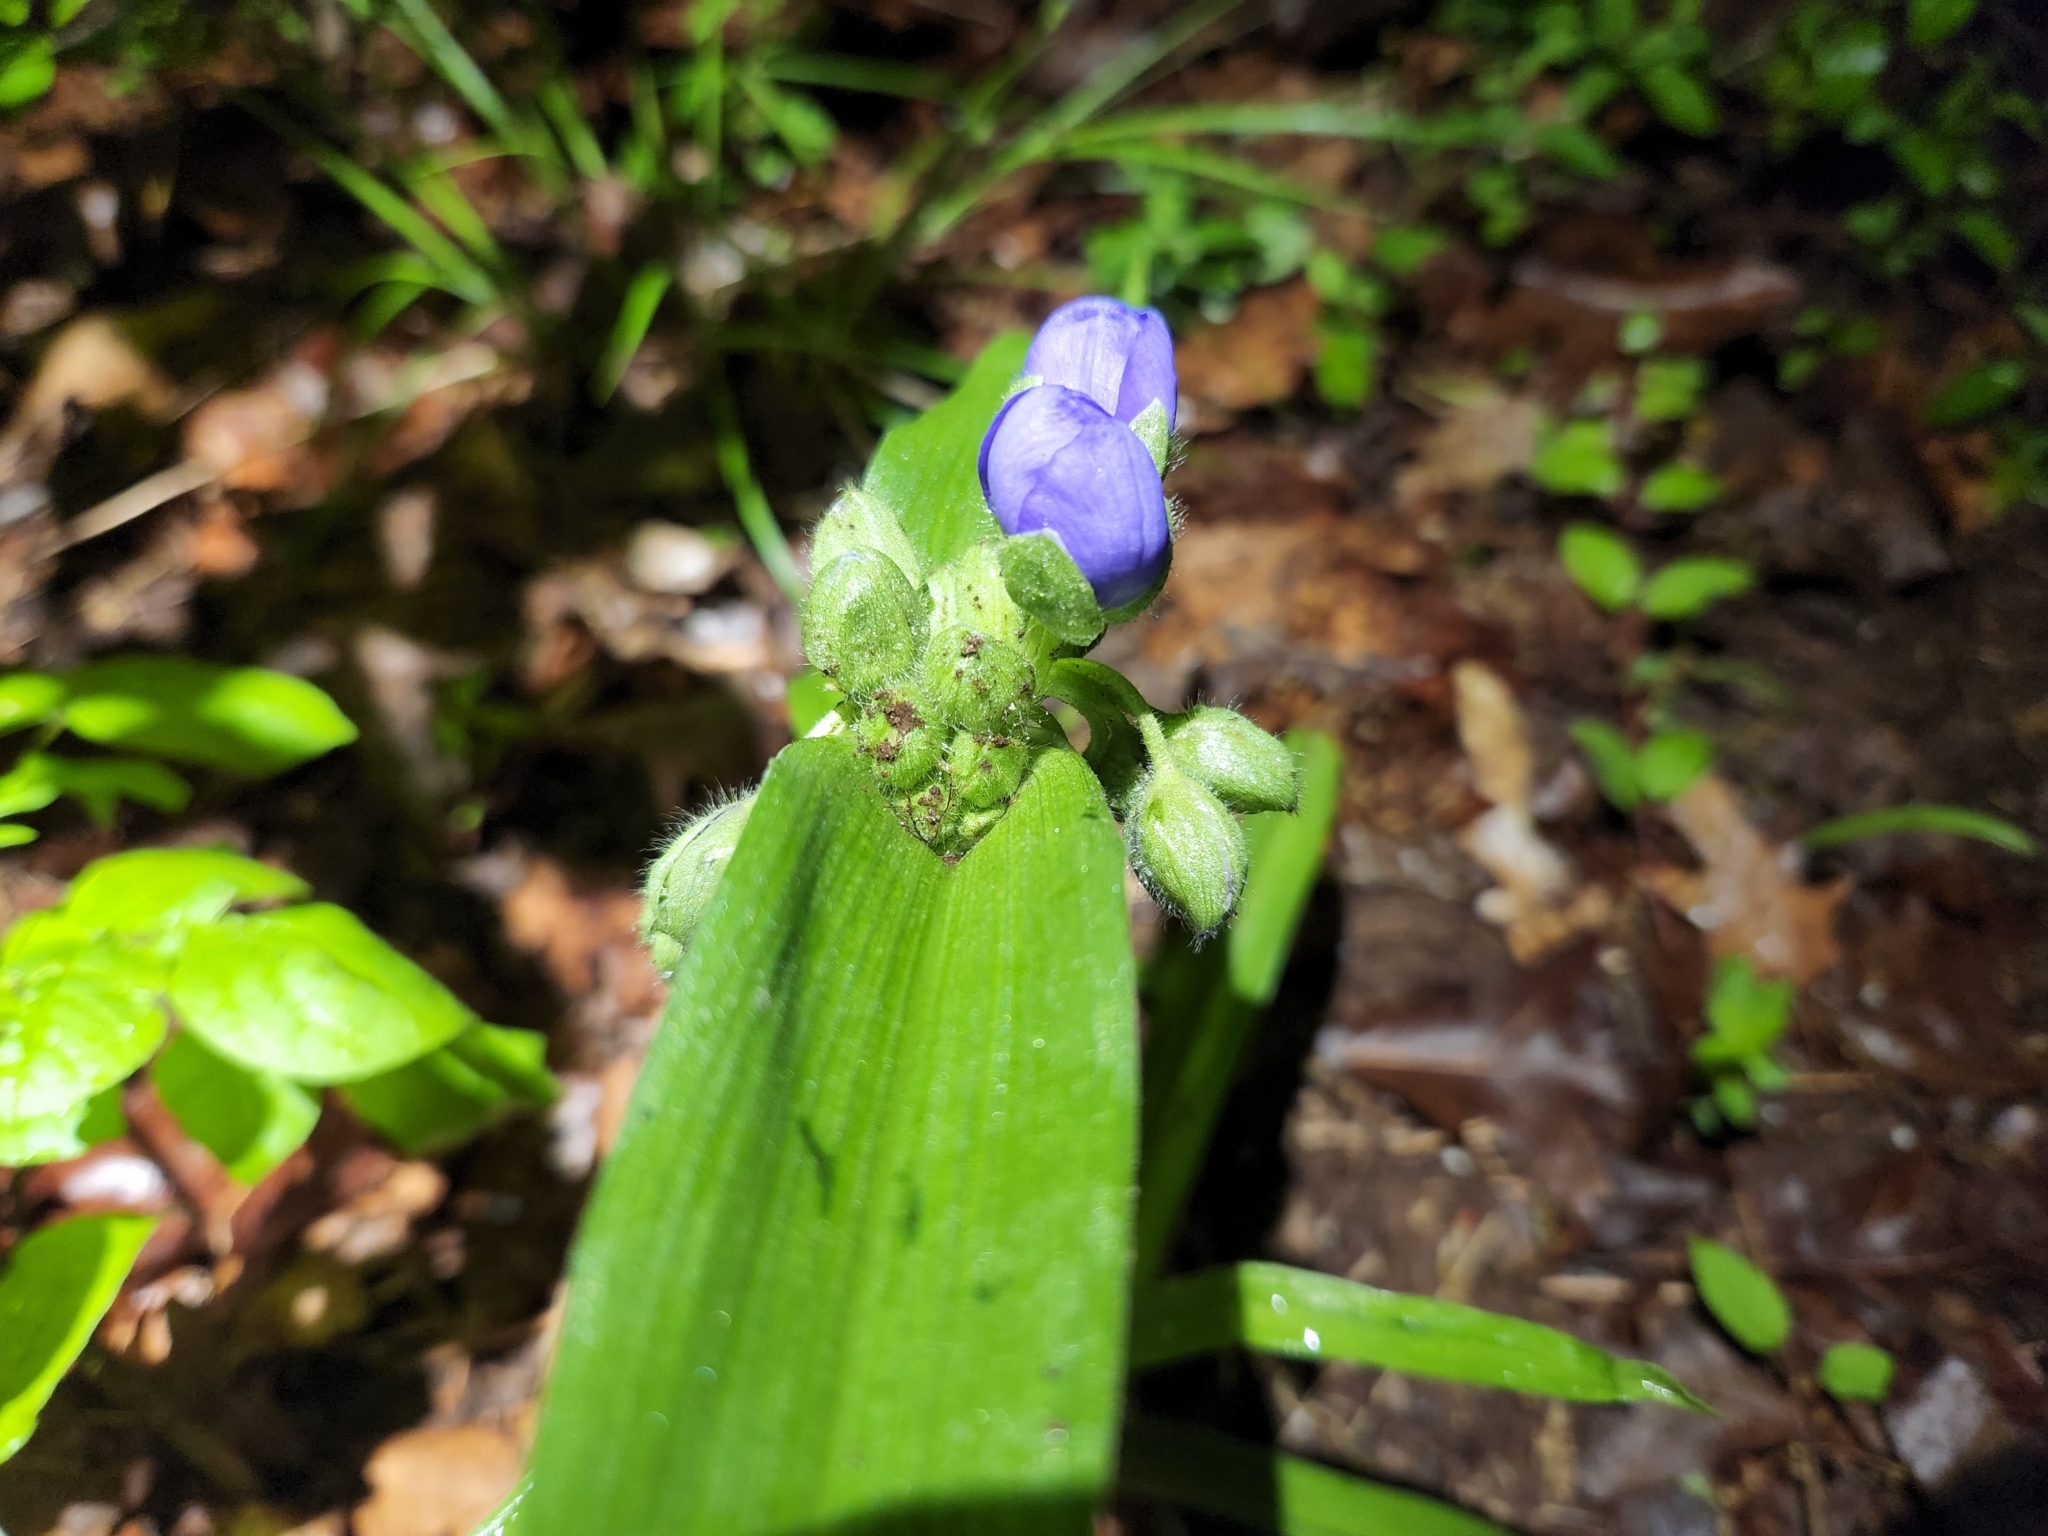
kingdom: Plantae
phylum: Tracheophyta
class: Liliopsida
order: Commelinales
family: Commelinaceae
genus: Tradescantia
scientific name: Tradescantia virginiana
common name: Spiderwort
